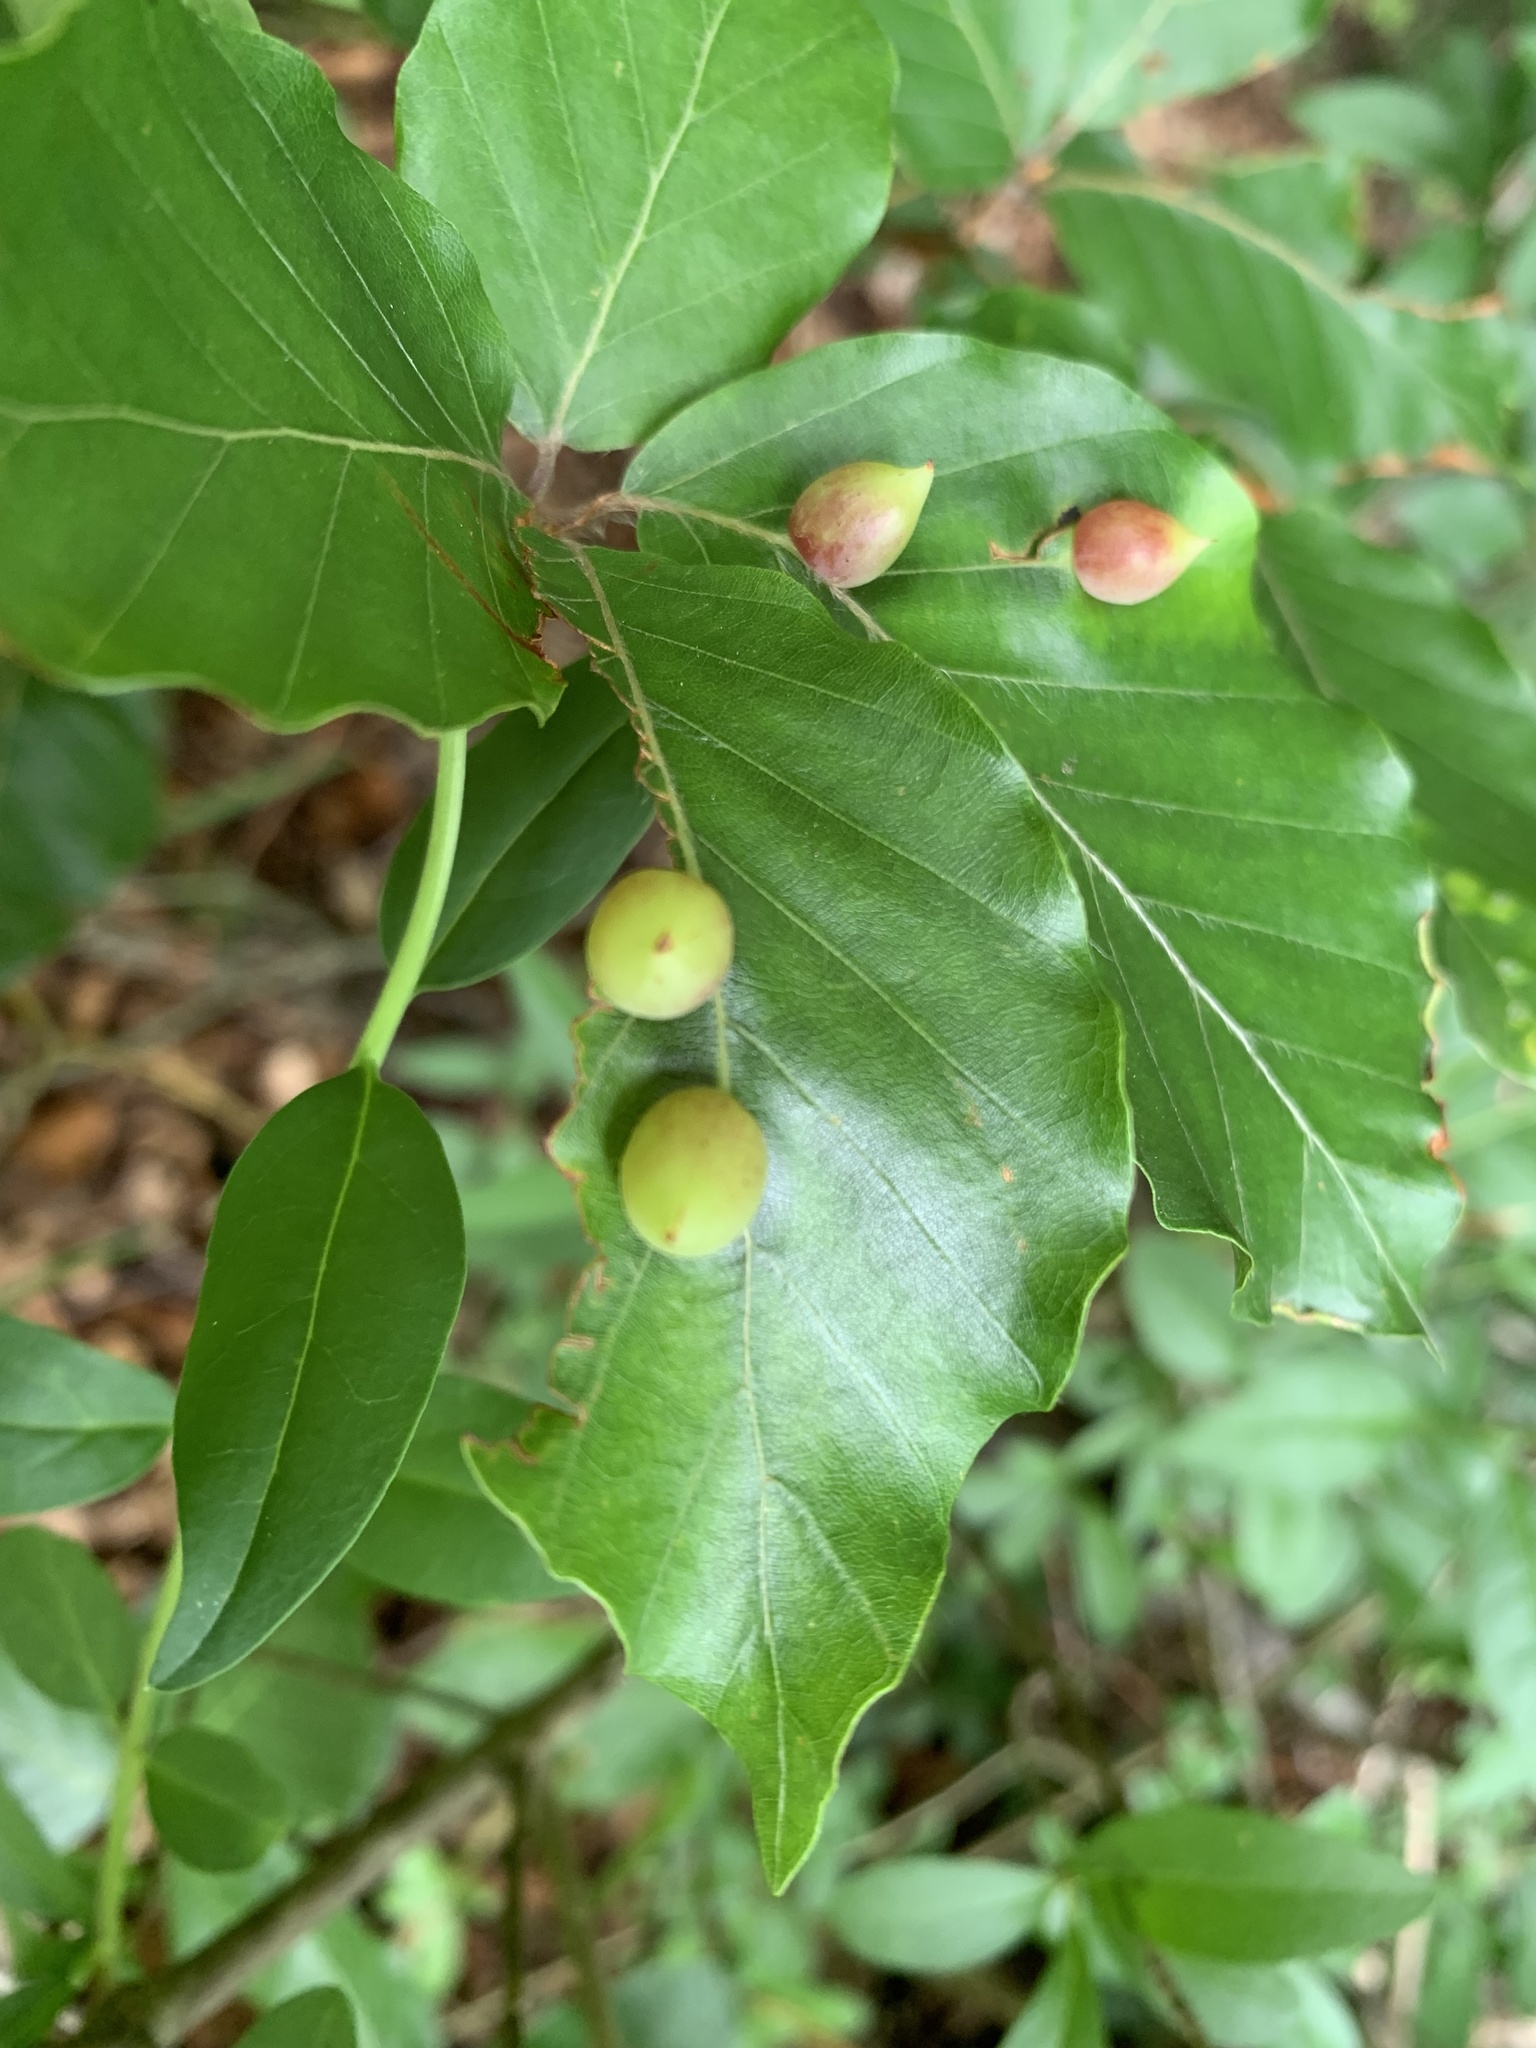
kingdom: Animalia
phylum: Arthropoda
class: Insecta
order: Diptera
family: Cecidomyiidae
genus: Mikiola
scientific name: Mikiola fagi
